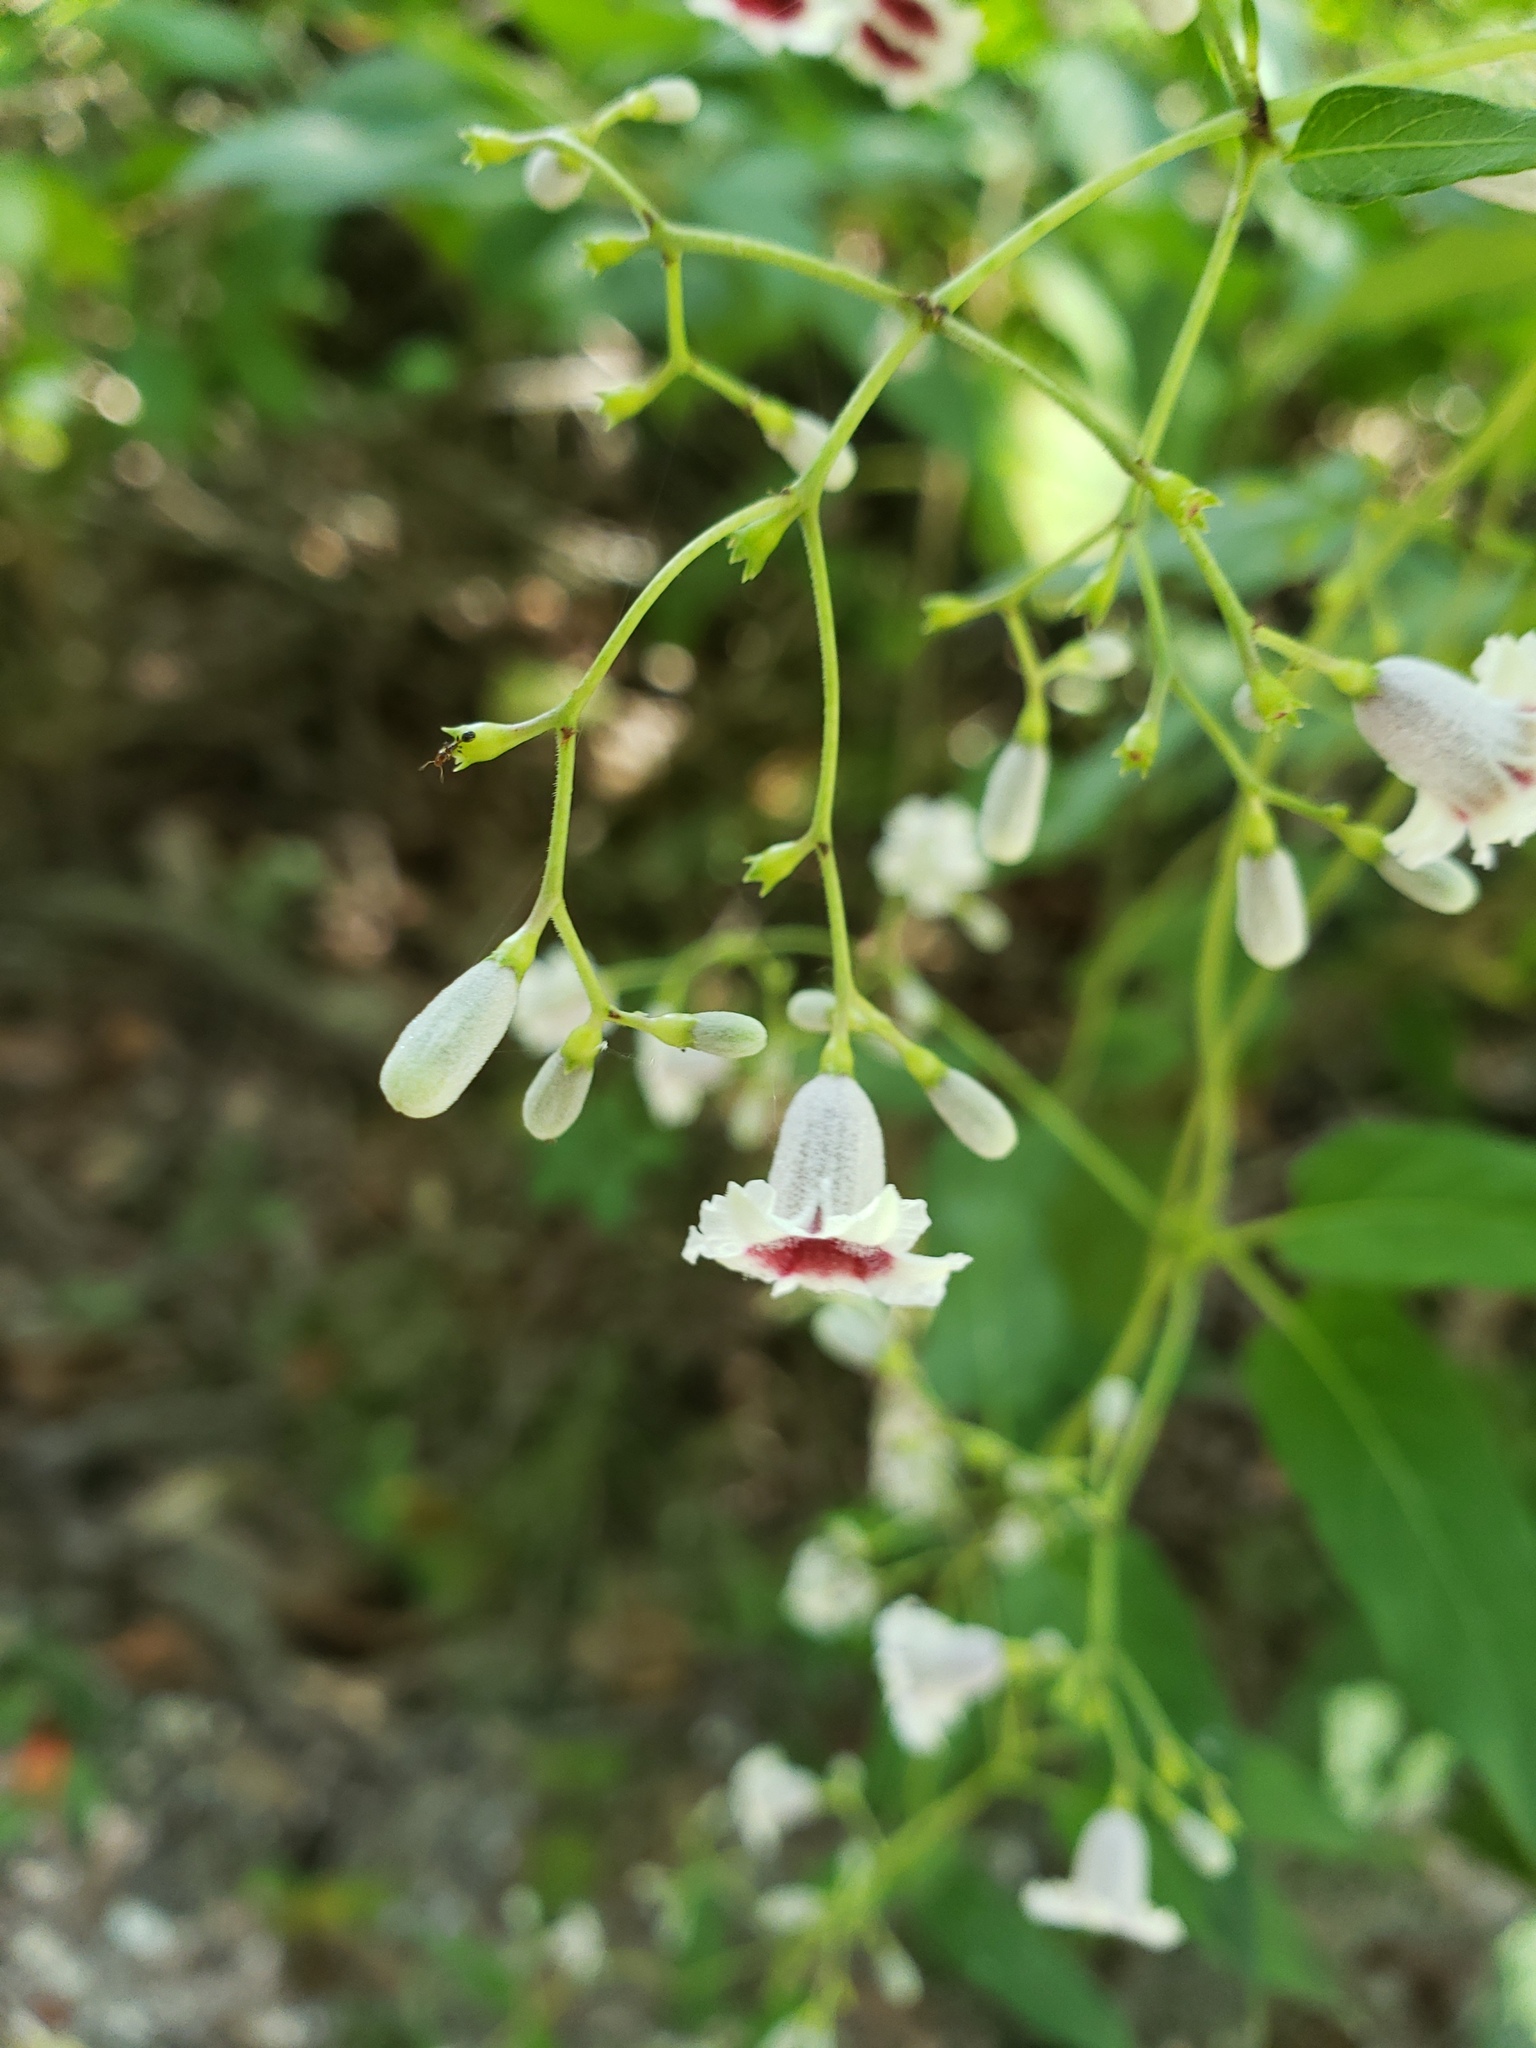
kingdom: Plantae
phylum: Tracheophyta
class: Magnoliopsida
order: Gentianales
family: Rubiaceae
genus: Paederia
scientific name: Paederia foetida
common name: Stinkvine
